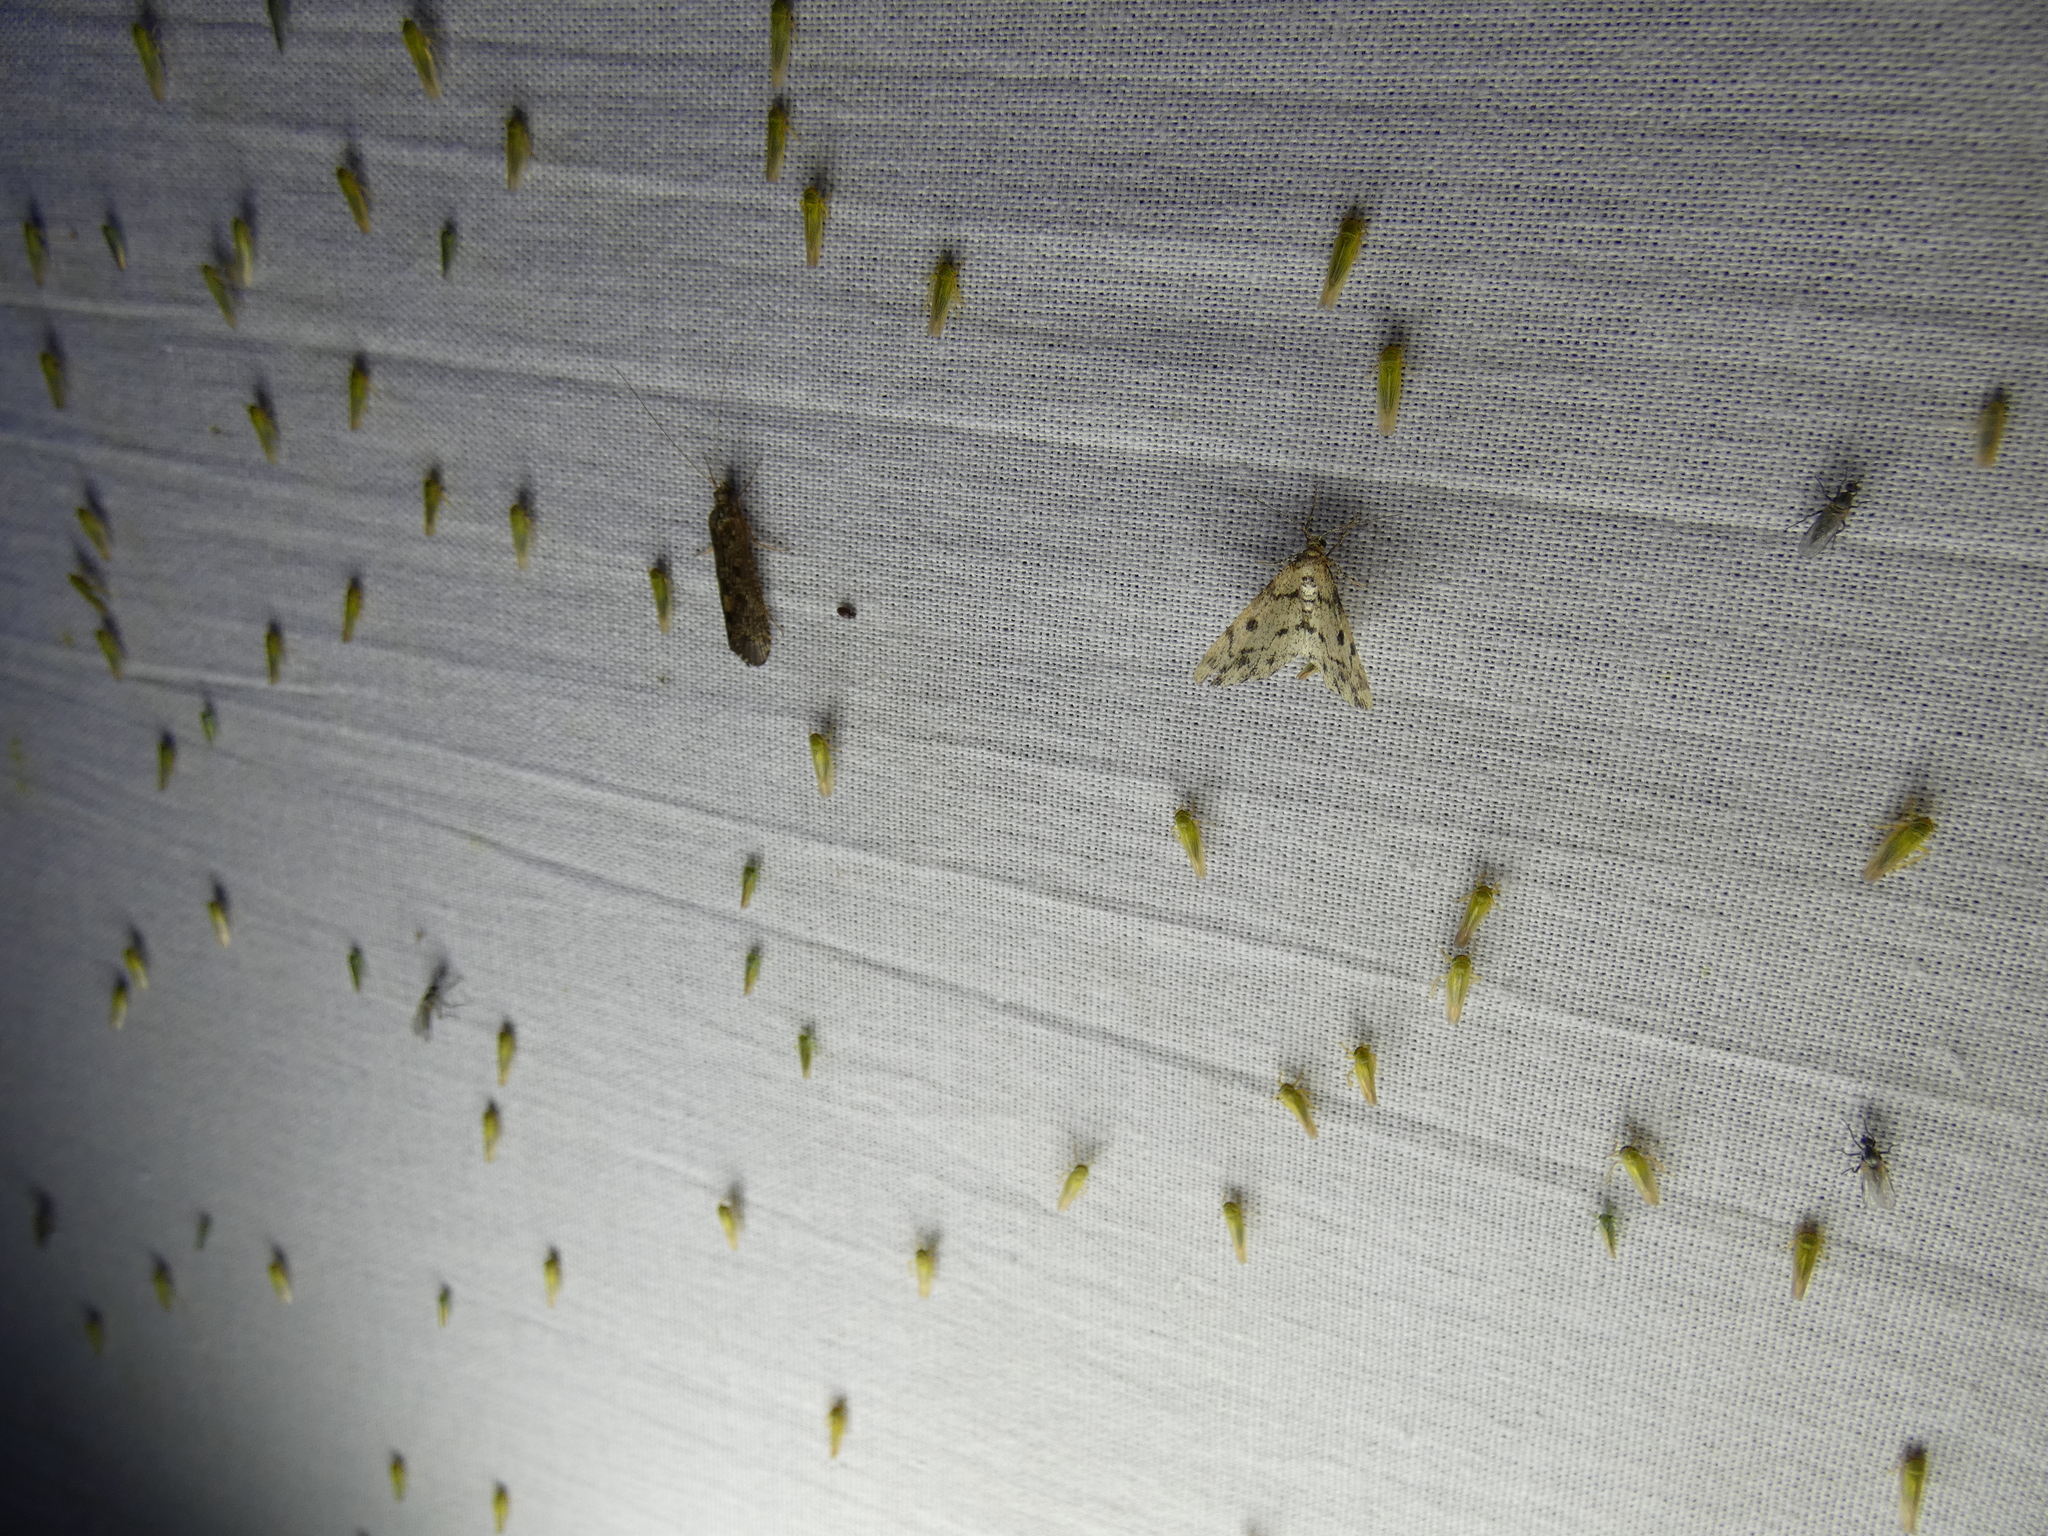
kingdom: Animalia
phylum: Arthropoda
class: Insecta
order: Lepidoptera
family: Geometridae
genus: Alcis
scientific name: Alcis jubata
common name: Dotted carpet
